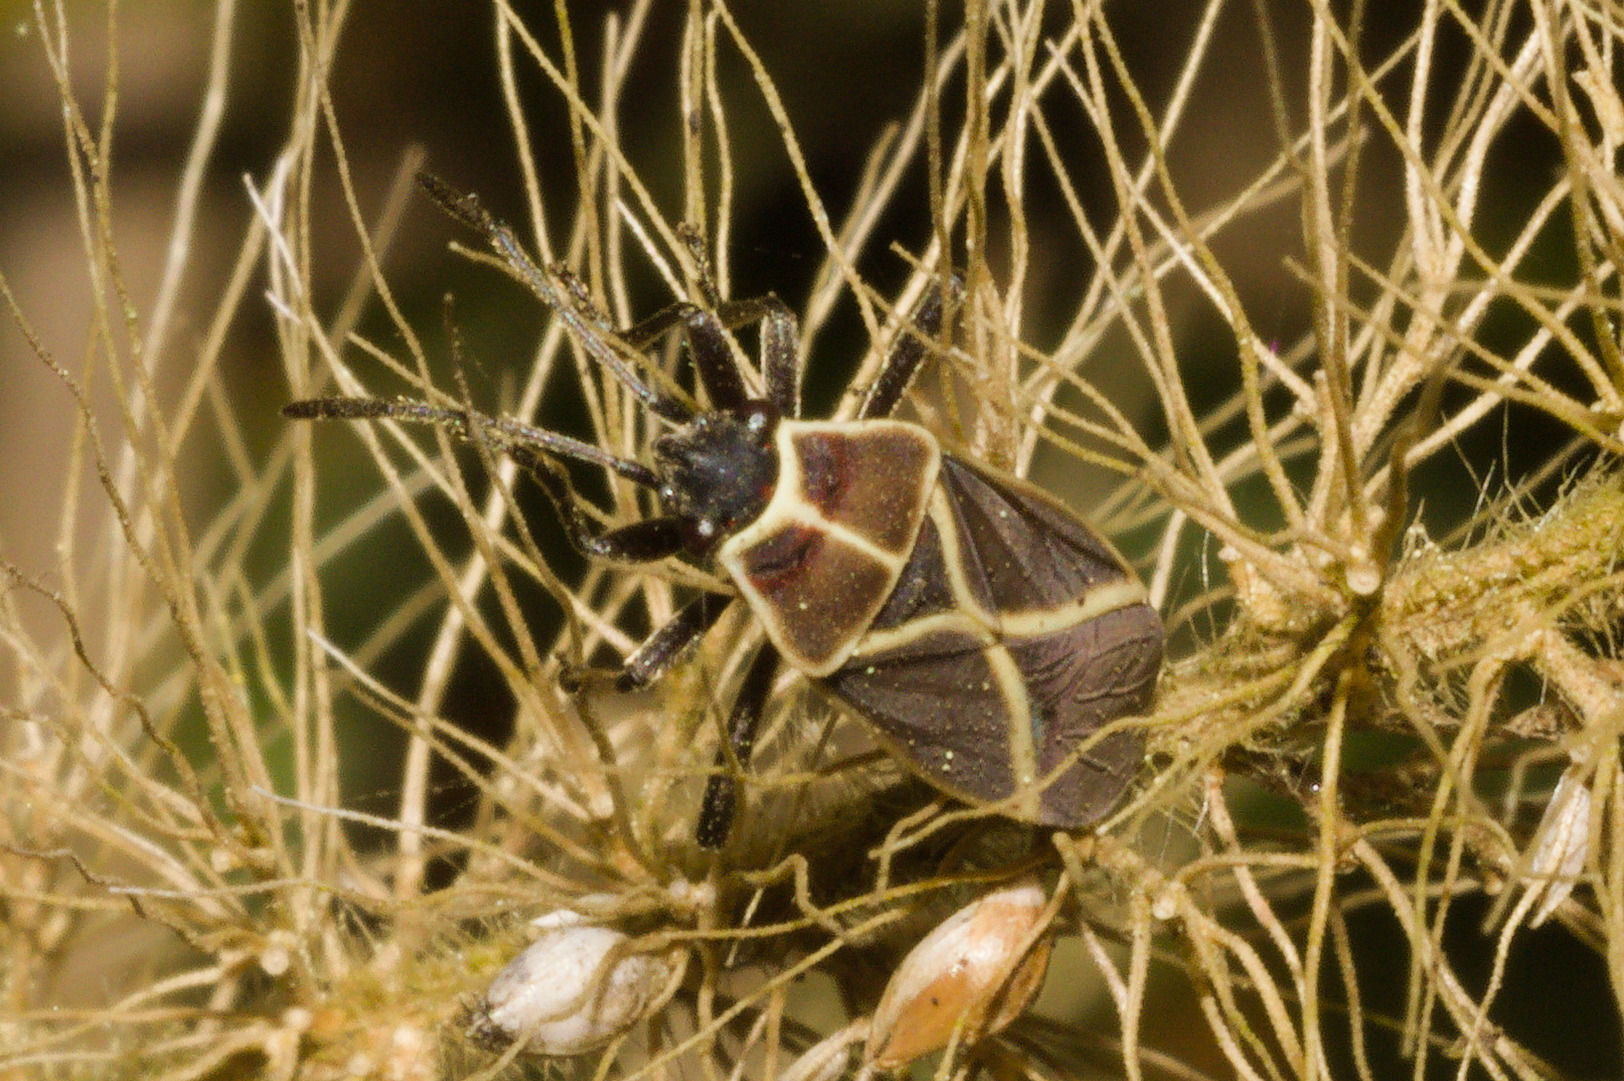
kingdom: Animalia
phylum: Arthropoda
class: Insecta
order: Hemiptera
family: Lygaeidae
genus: Craspeduchus
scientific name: Craspeduchus xanthostaurus
